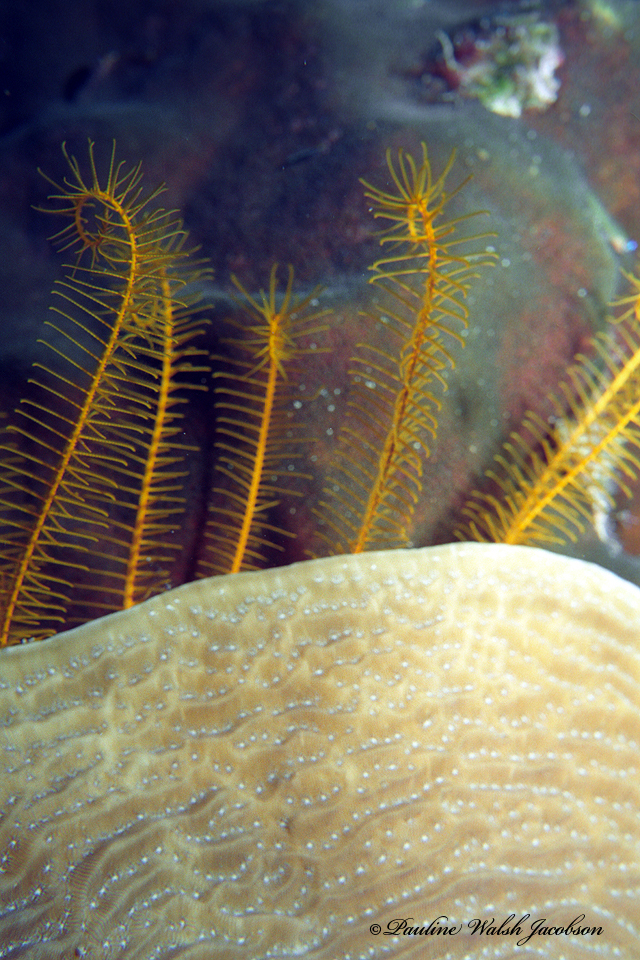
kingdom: Animalia
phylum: Echinodermata
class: Crinoidea
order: Comatulida
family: Comatulidae
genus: Davidaster
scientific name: Davidaster rubiginosus
